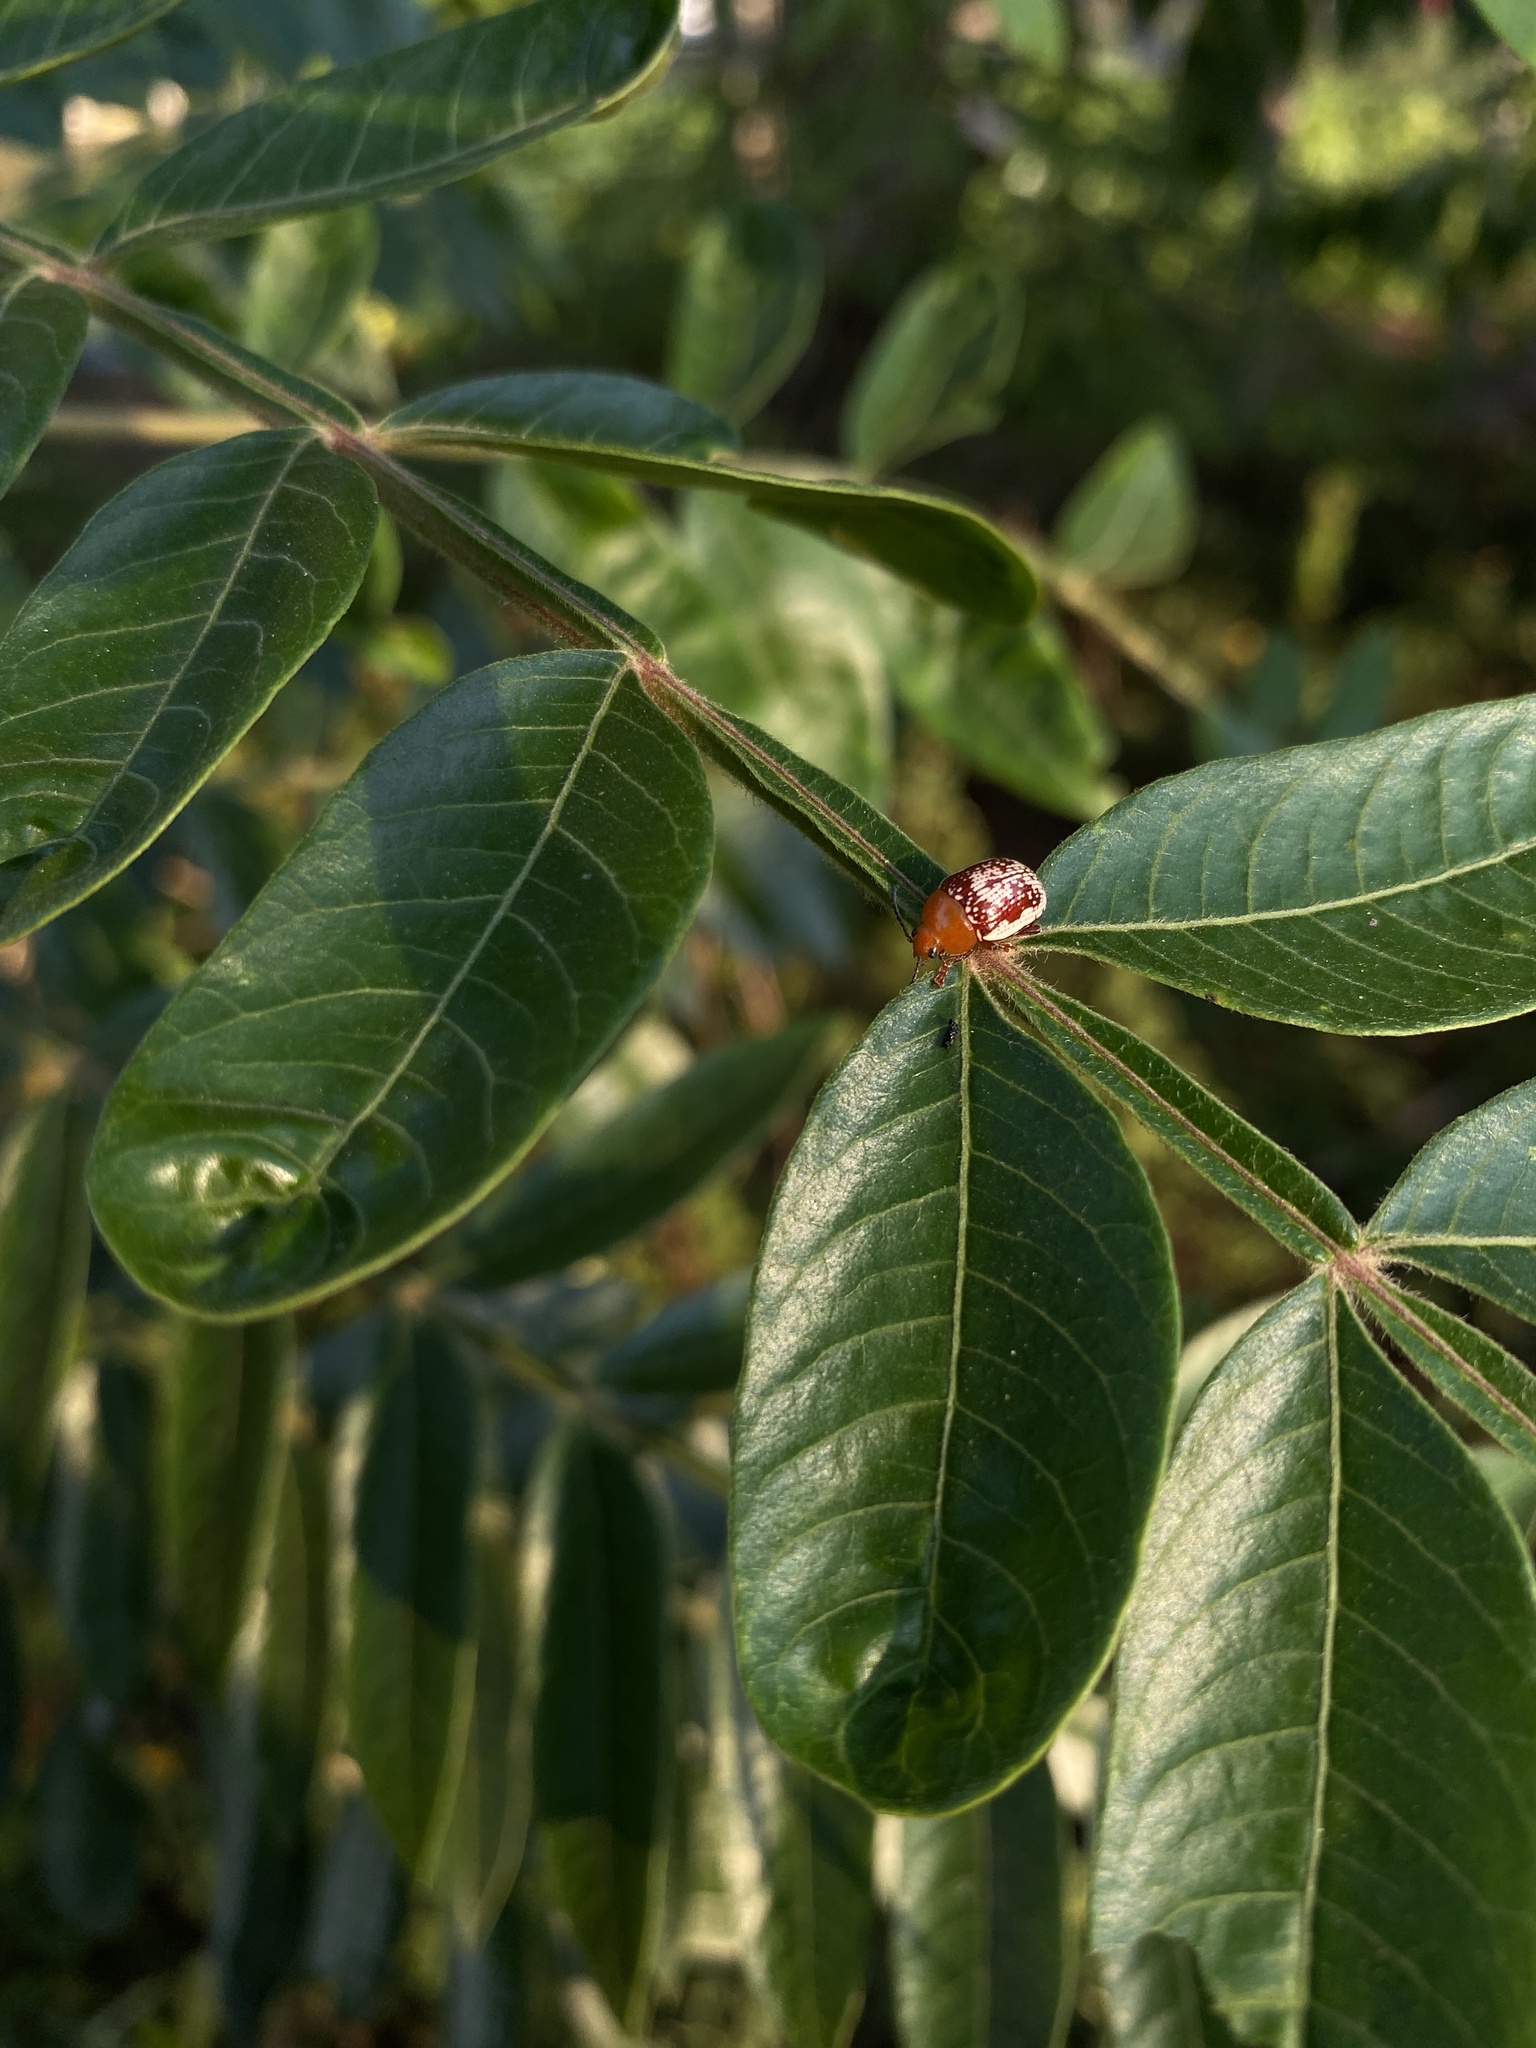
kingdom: Animalia
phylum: Arthropoda
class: Insecta
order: Coleoptera
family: Chrysomelidae
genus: Blepharida
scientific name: Blepharida rhois
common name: Sumac flea beetle
